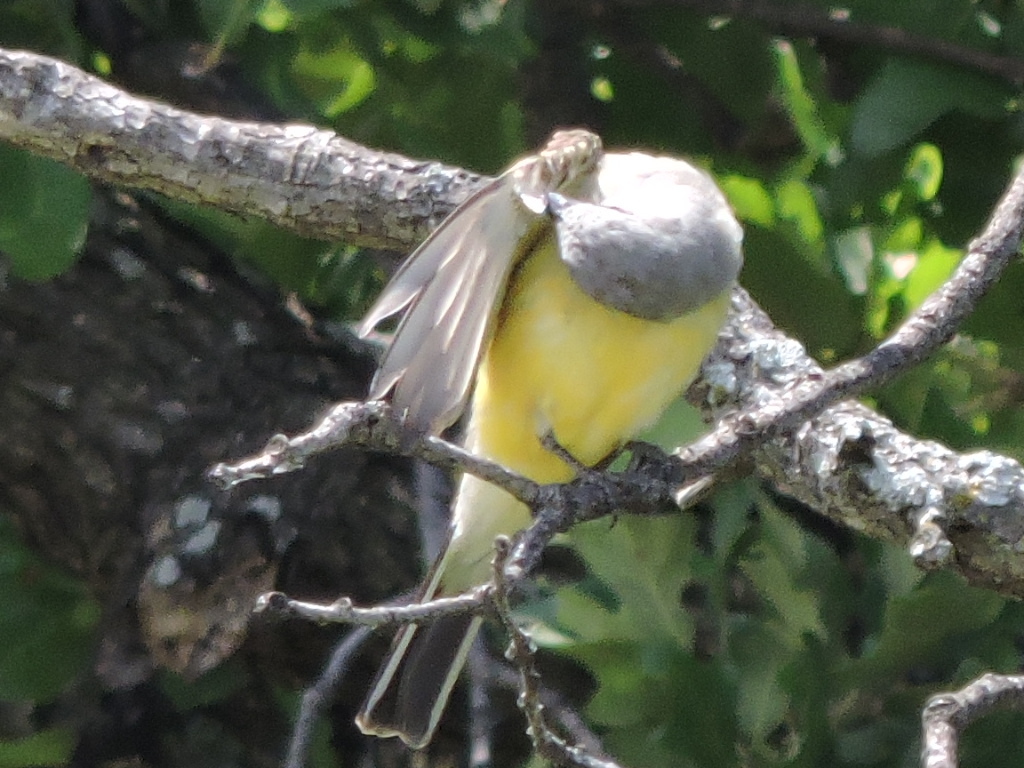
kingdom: Animalia
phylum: Chordata
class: Aves
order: Passeriformes
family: Tyrannidae
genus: Tyrannus
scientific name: Tyrannus verticalis
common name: Western kingbird
